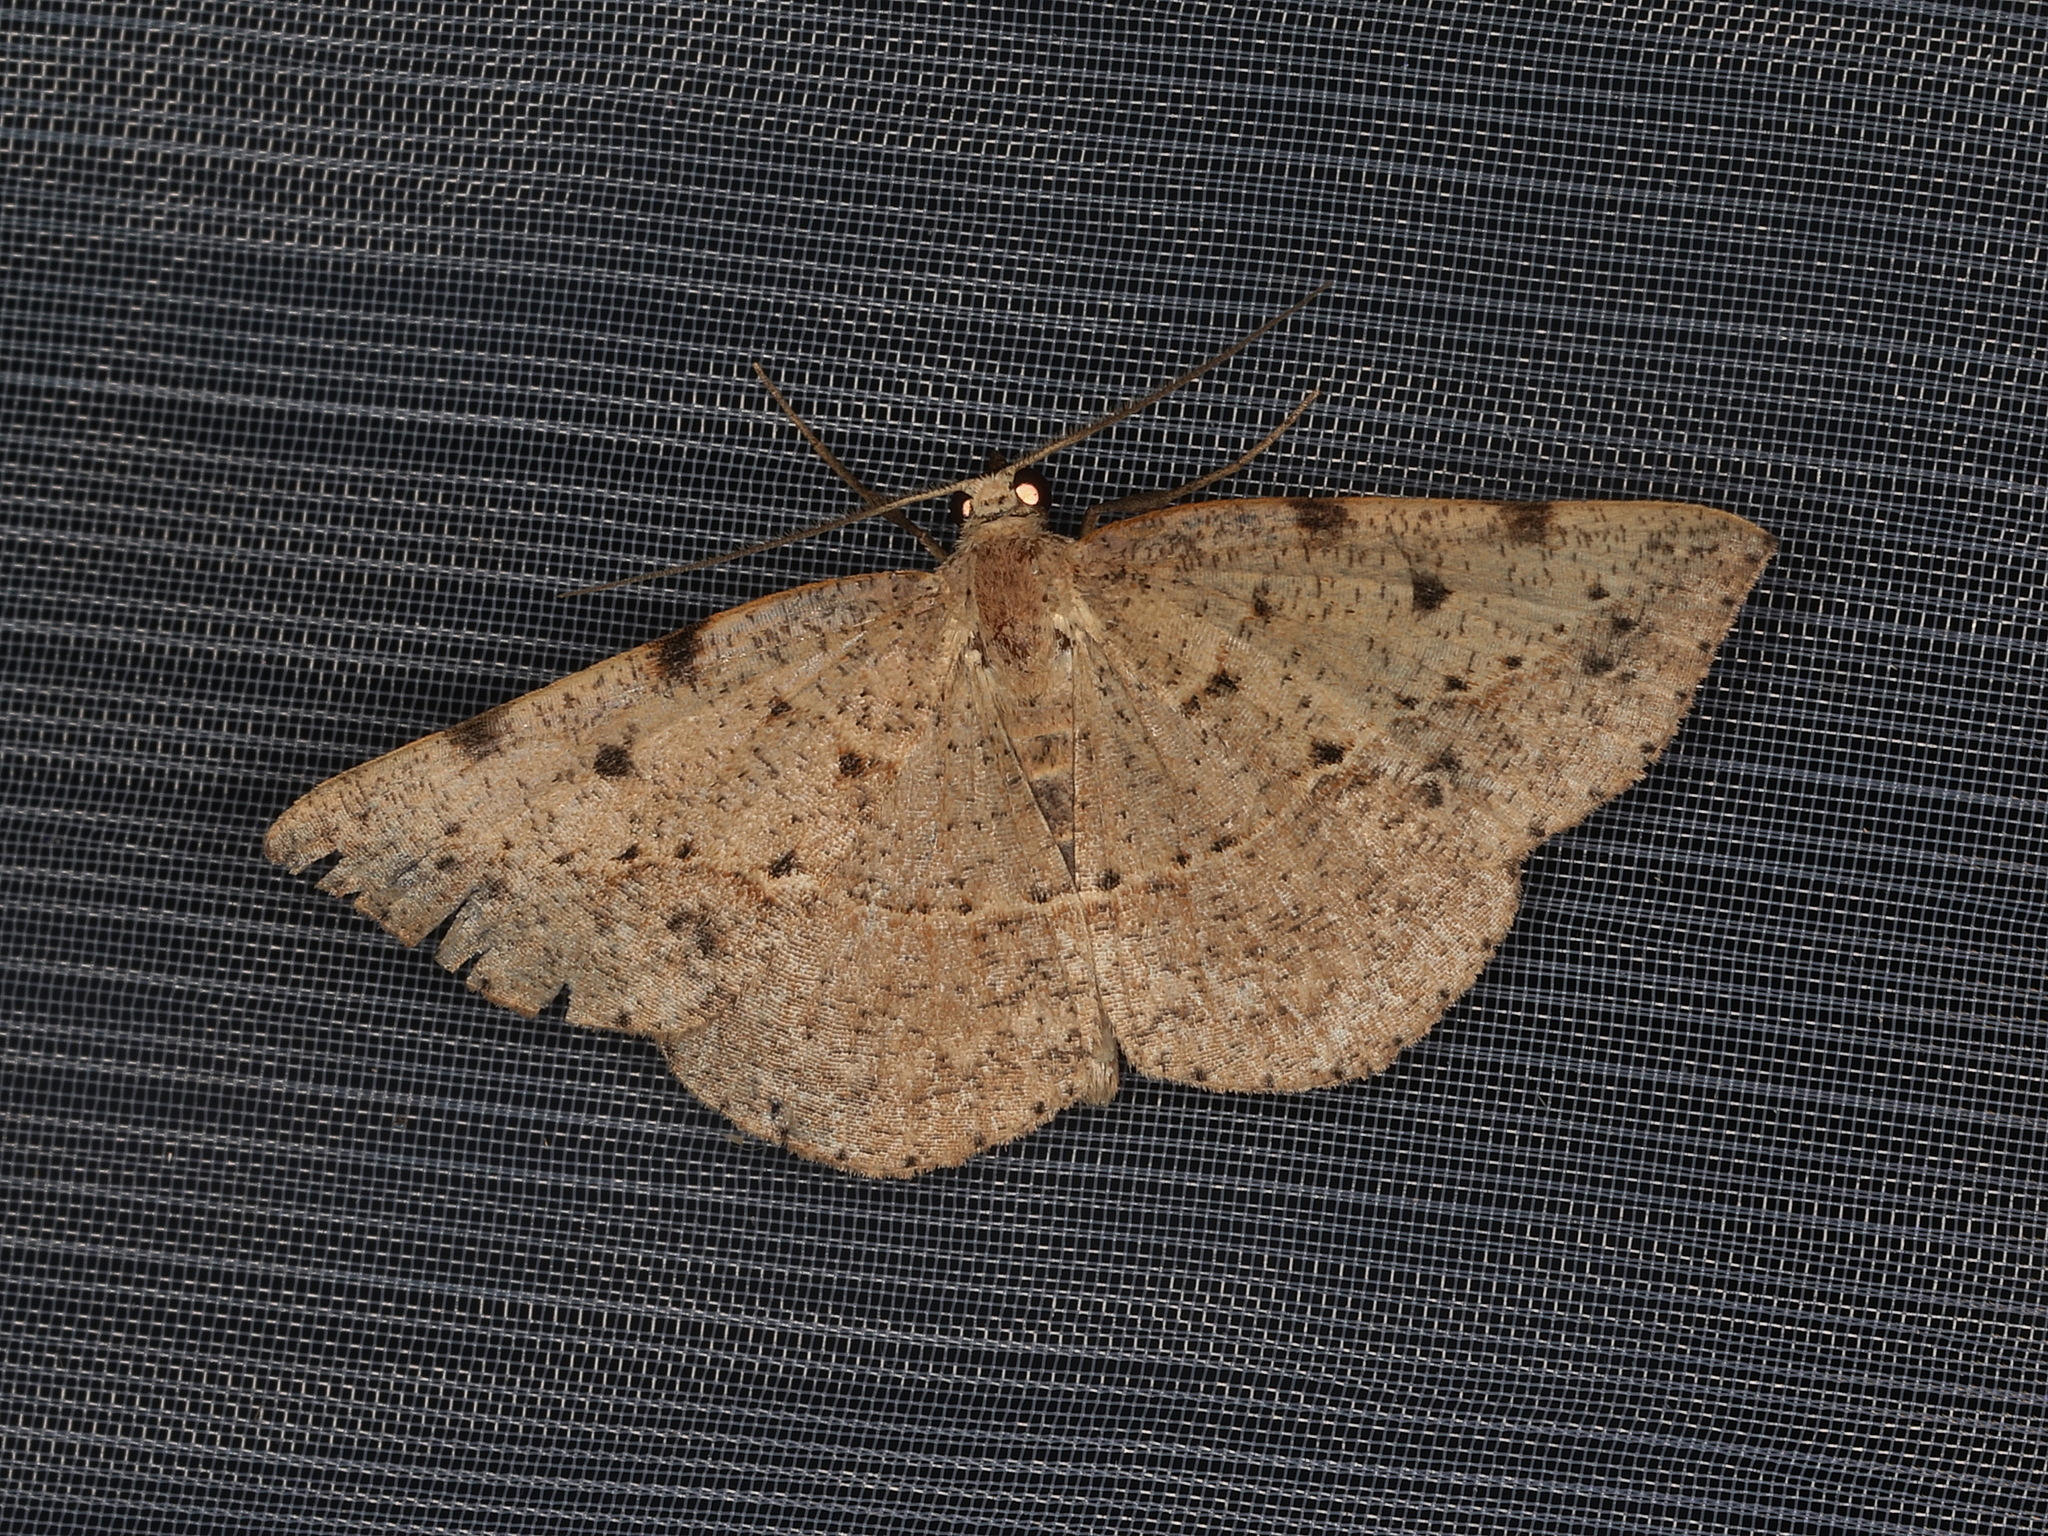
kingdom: Animalia
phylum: Arthropoda
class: Insecta
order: Lepidoptera
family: Geometridae
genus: Taxeotis
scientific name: Taxeotis epigaea
